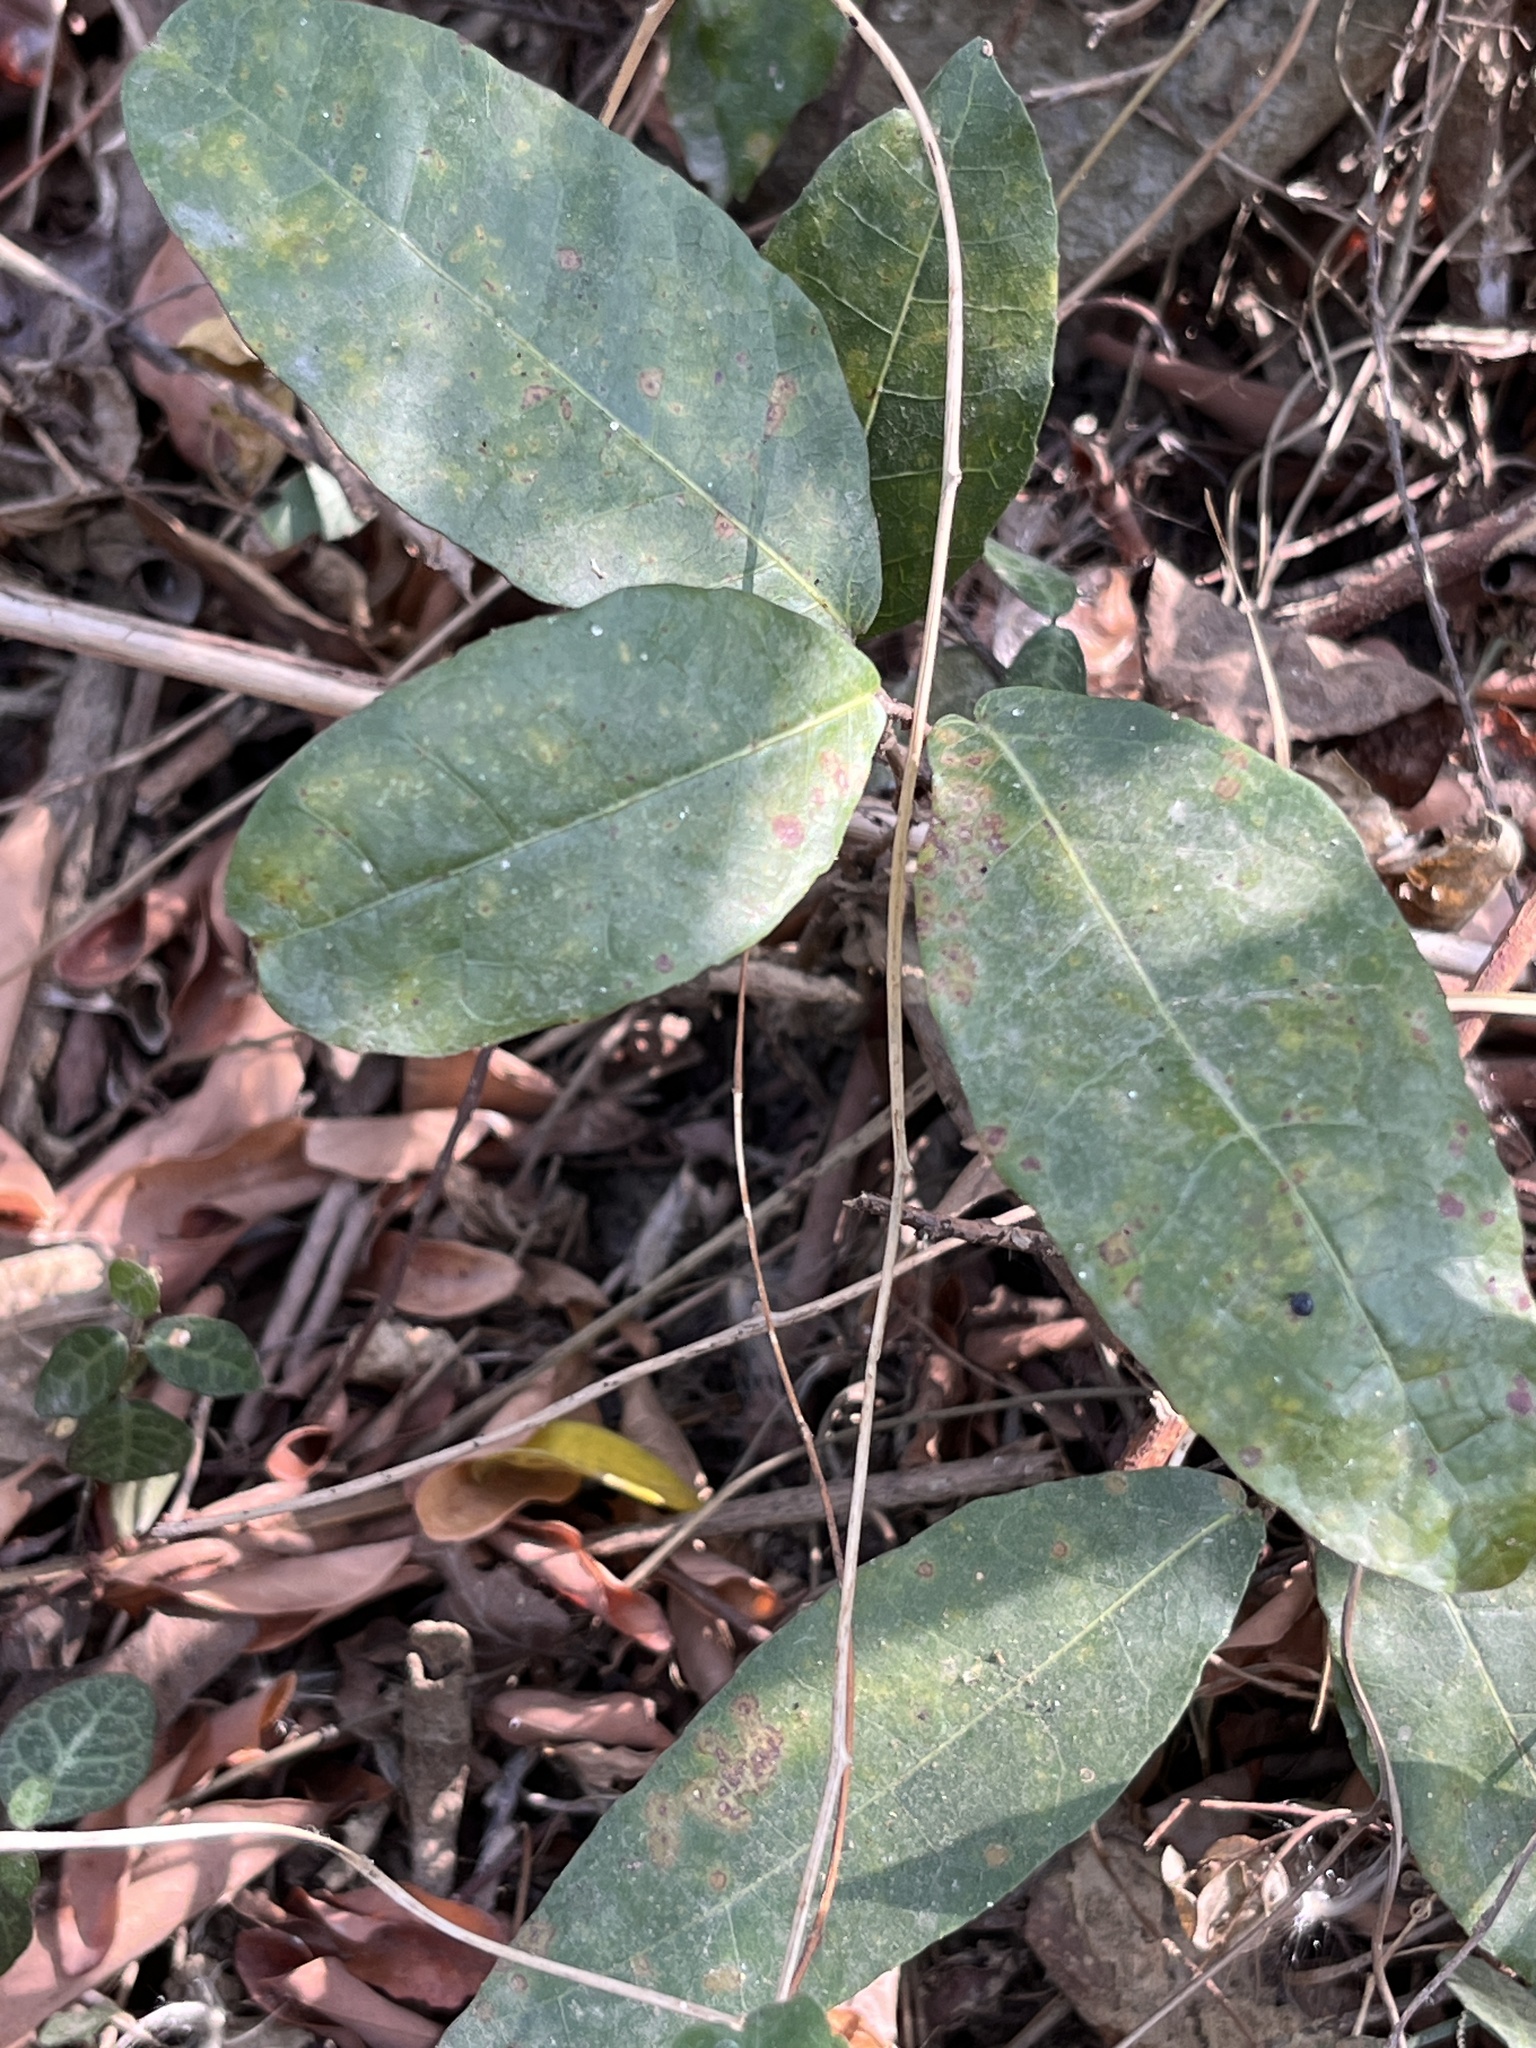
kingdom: Plantae
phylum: Tracheophyta
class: Magnoliopsida
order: Rosales
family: Moraceae
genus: Malaisia
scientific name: Malaisia scandens
